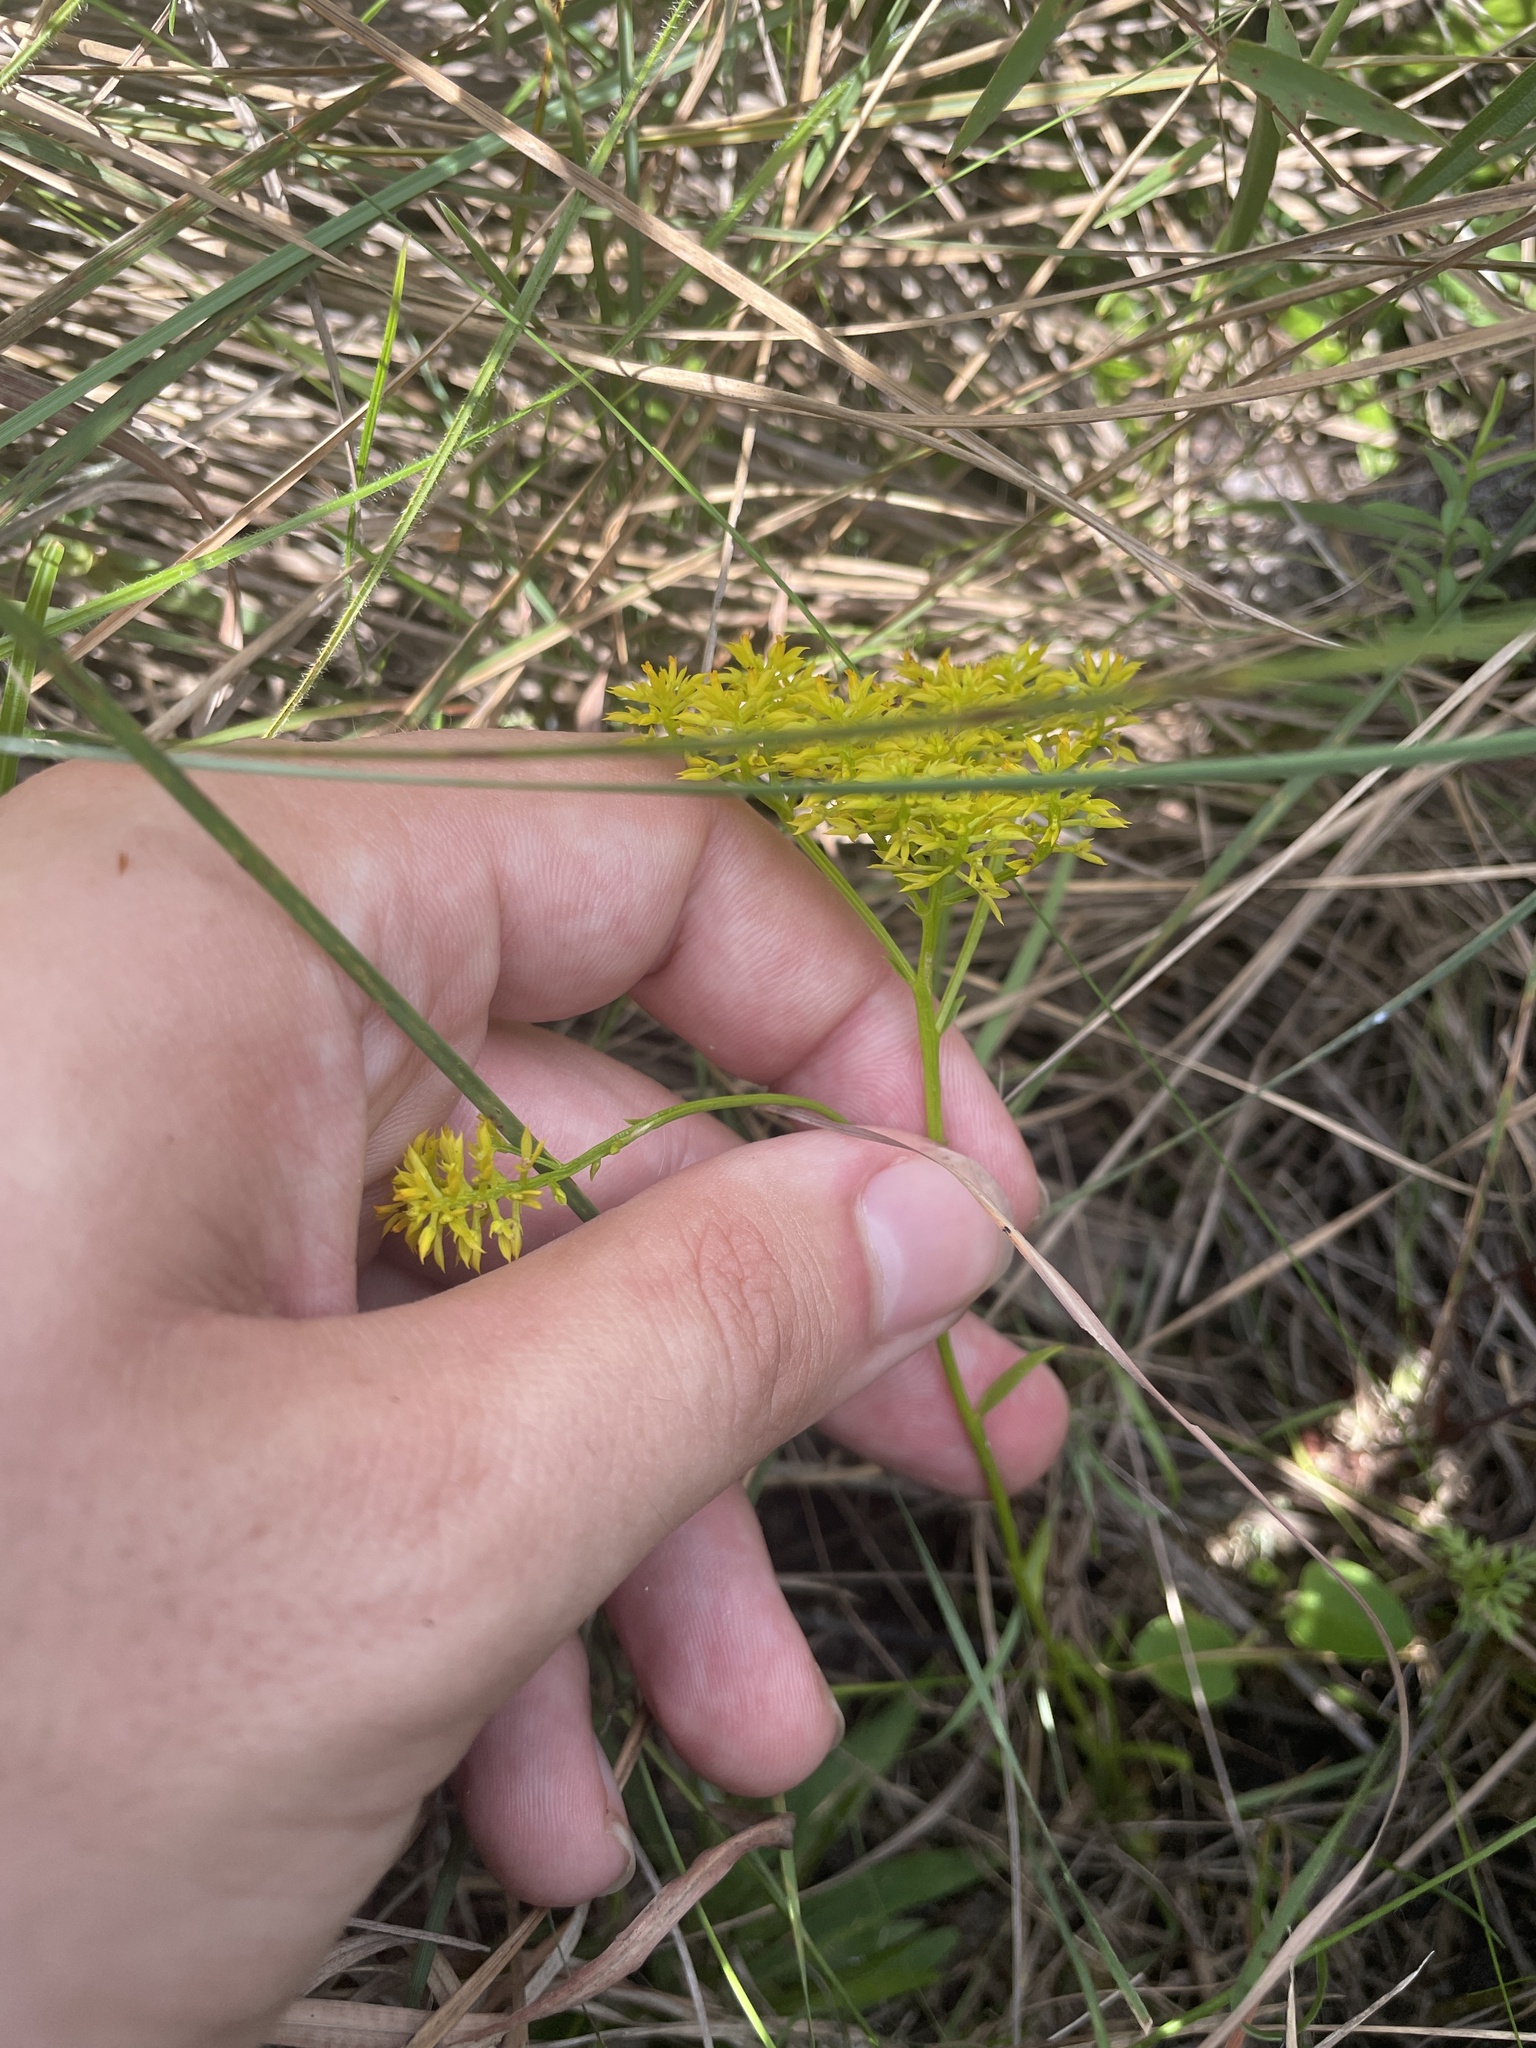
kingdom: Plantae
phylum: Tracheophyta
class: Magnoliopsida
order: Fabales
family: Polygalaceae
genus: Polygala
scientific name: Polygala ramosa
